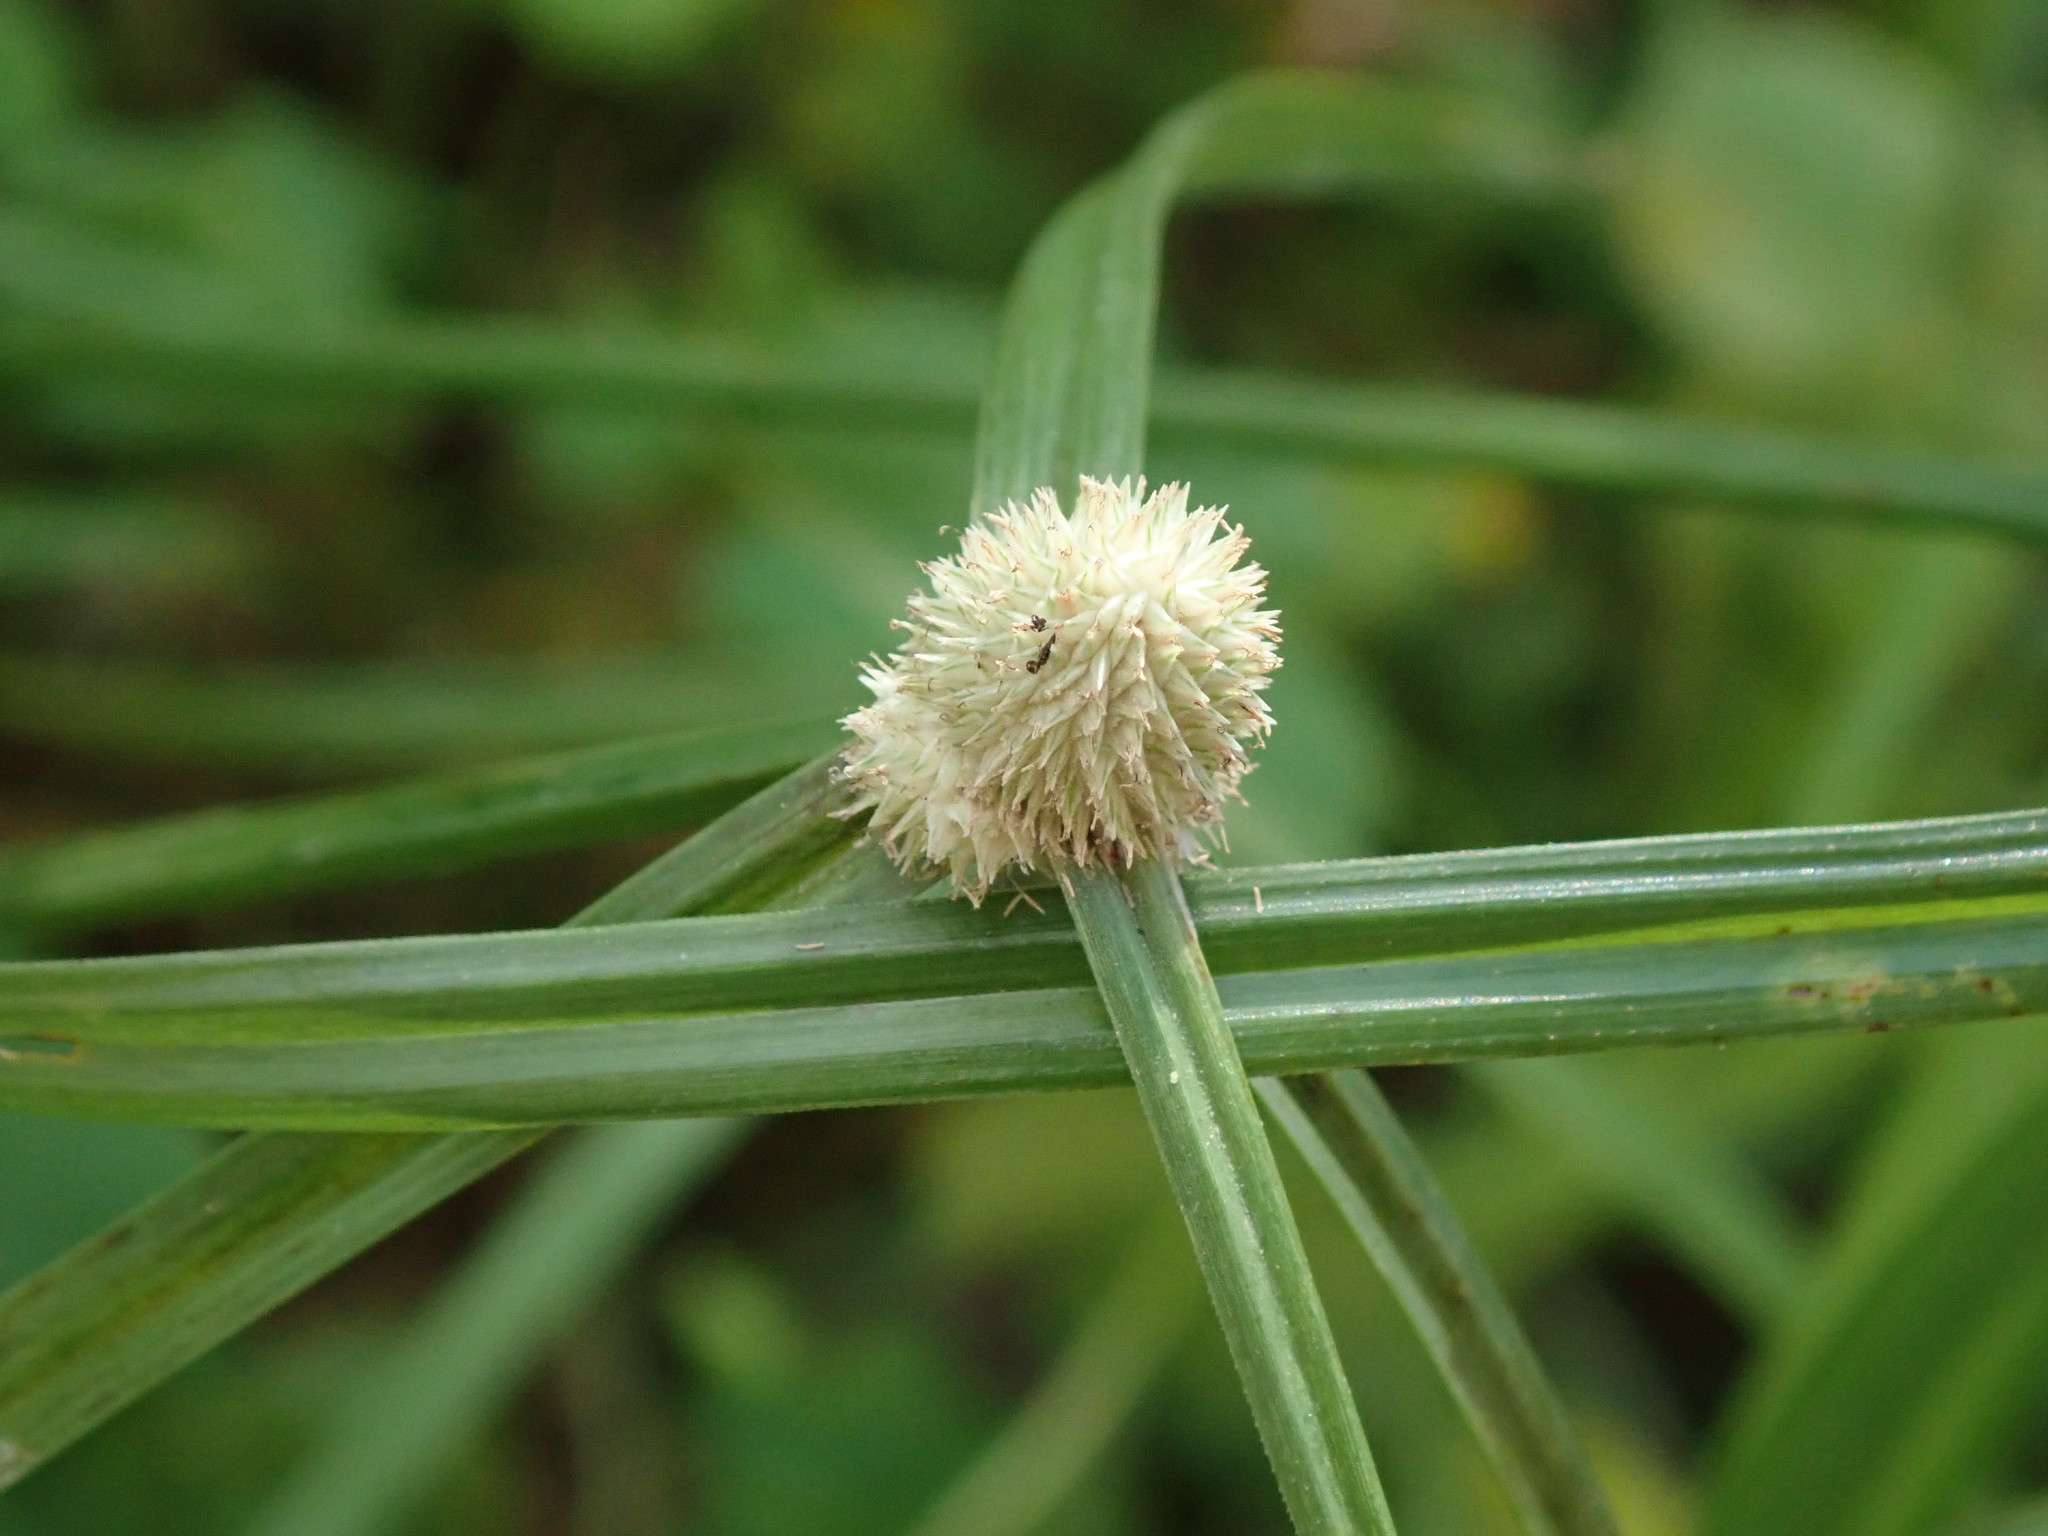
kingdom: Plantae
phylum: Tracheophyta
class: Liliopsida
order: Poales
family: Cyperaceae
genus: Cyperus
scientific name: Cyperus mindorensis
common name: Flatsedge
